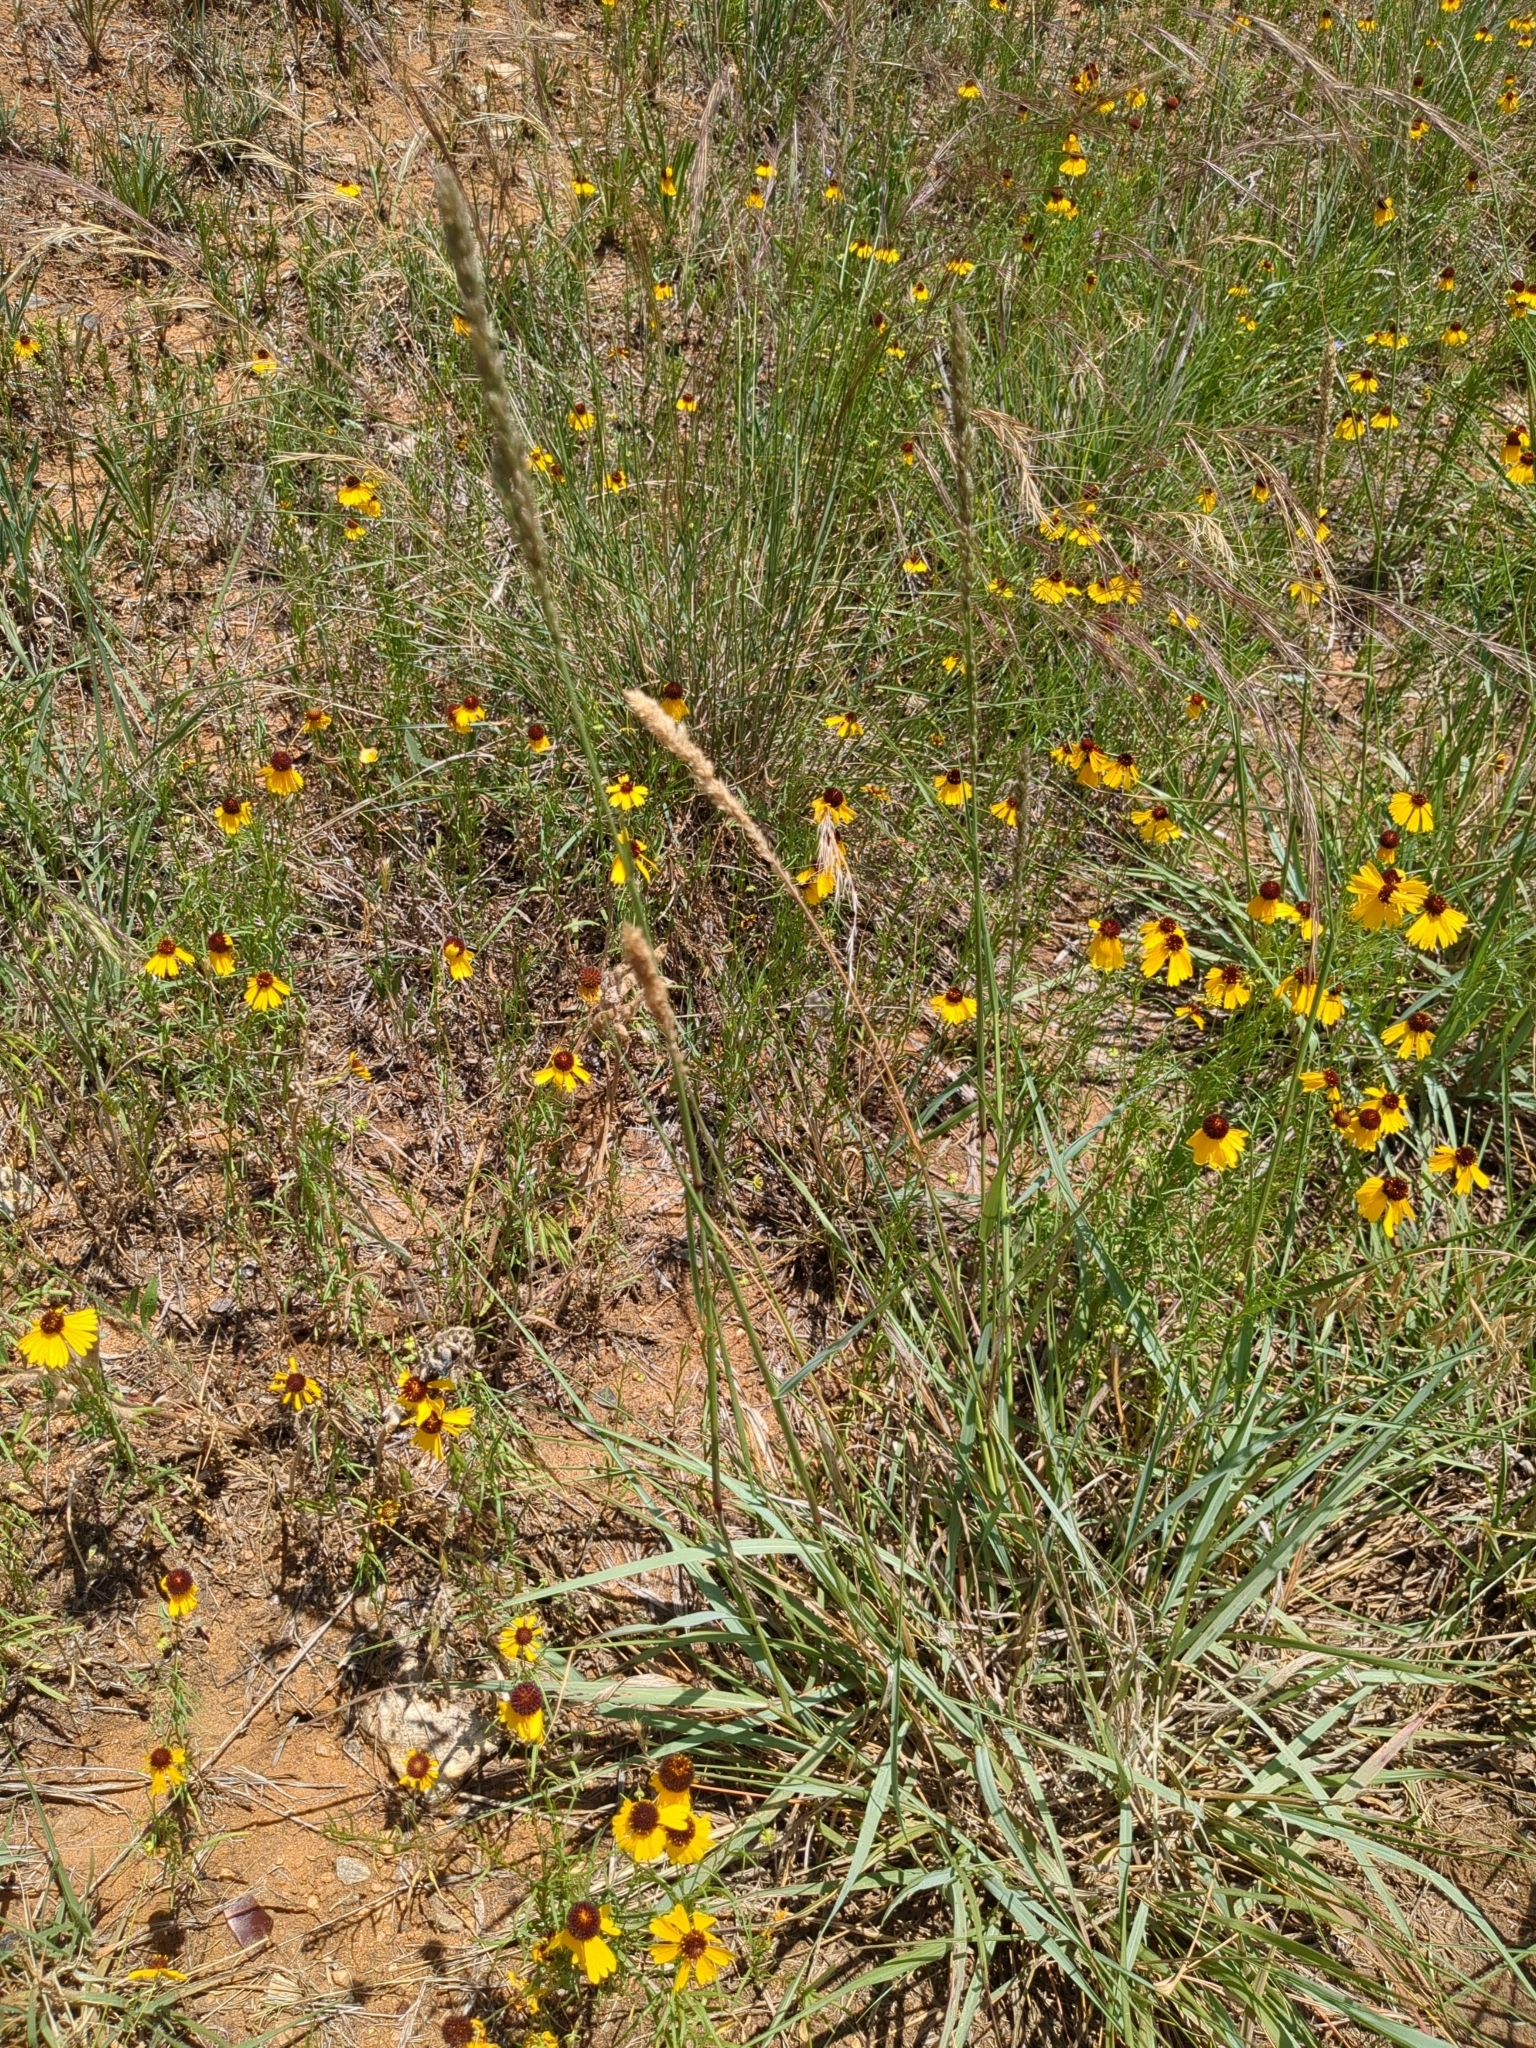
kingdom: Plantae
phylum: Tracheophyta
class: Liliopsida
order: Poales
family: Poaceae
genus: Tridens
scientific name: Tridens albescens
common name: White tridens
